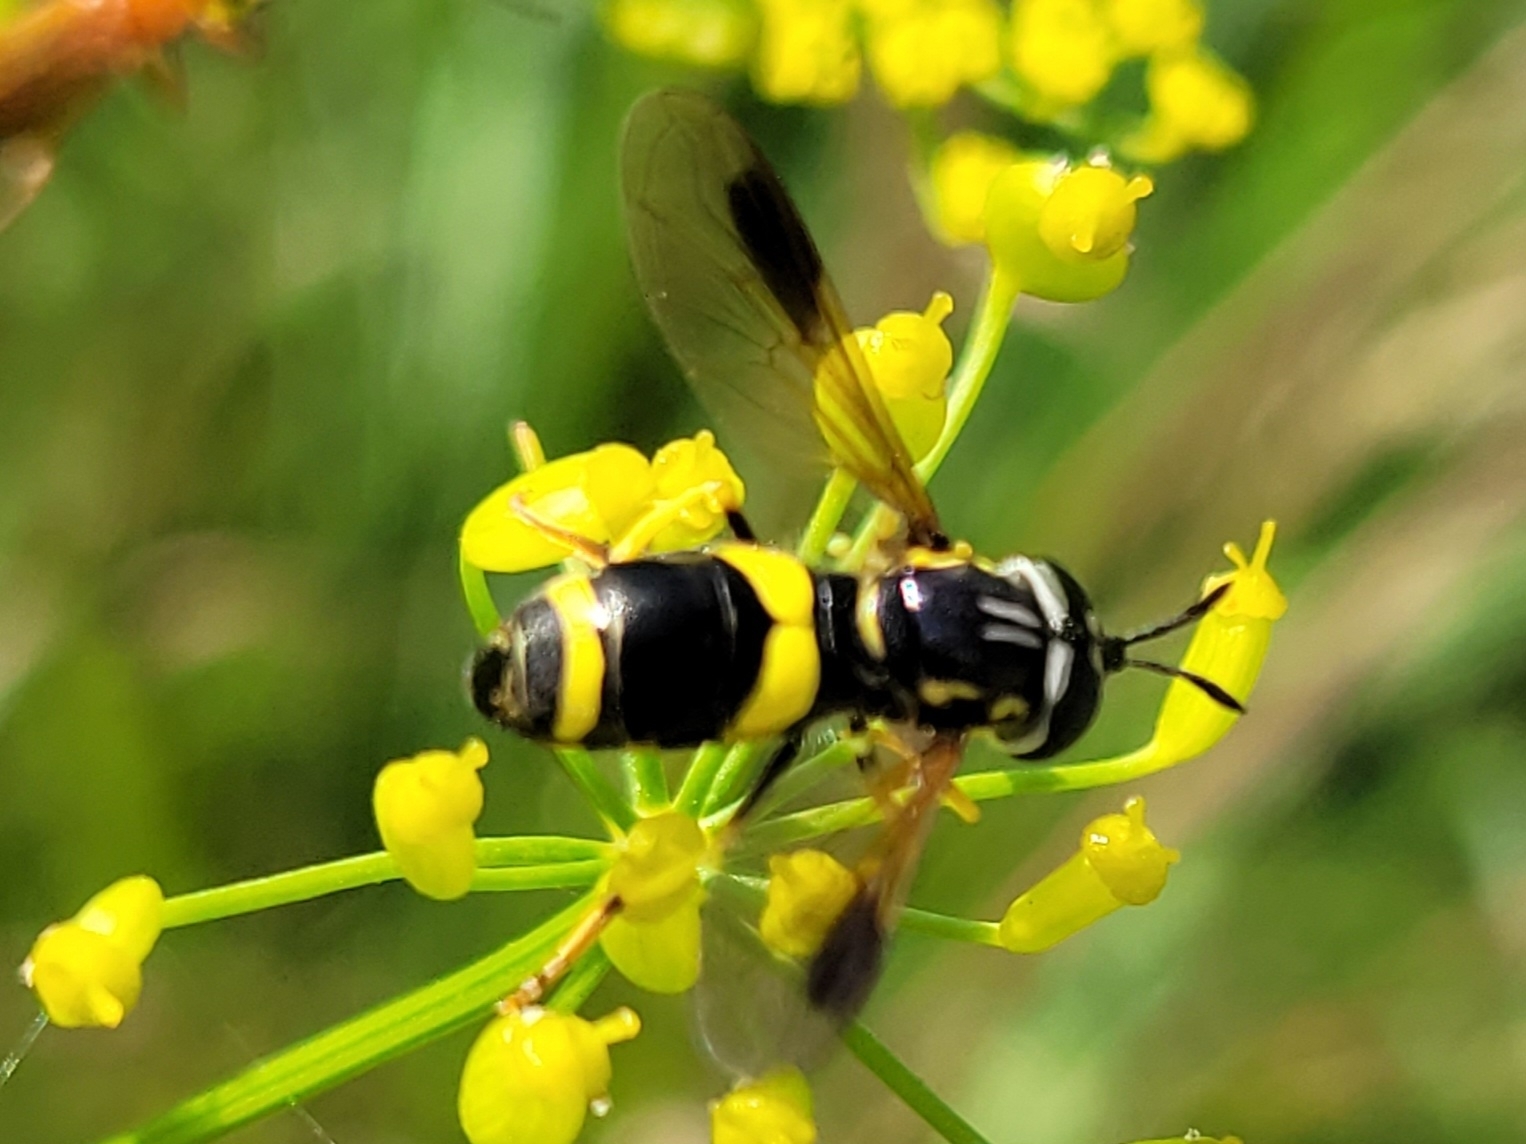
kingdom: Animalia
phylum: Arthropoda
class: Insecta
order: Diptera
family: Syrphidae
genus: Chrysotoxum
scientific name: Chrysotoxum bicincta
